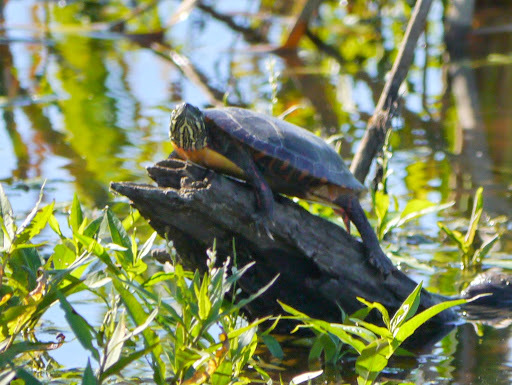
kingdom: Animalia
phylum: Chordata
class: Testudines
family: Emydidae
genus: Chrysemys
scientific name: Chrysemys picta
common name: Painted turtle
